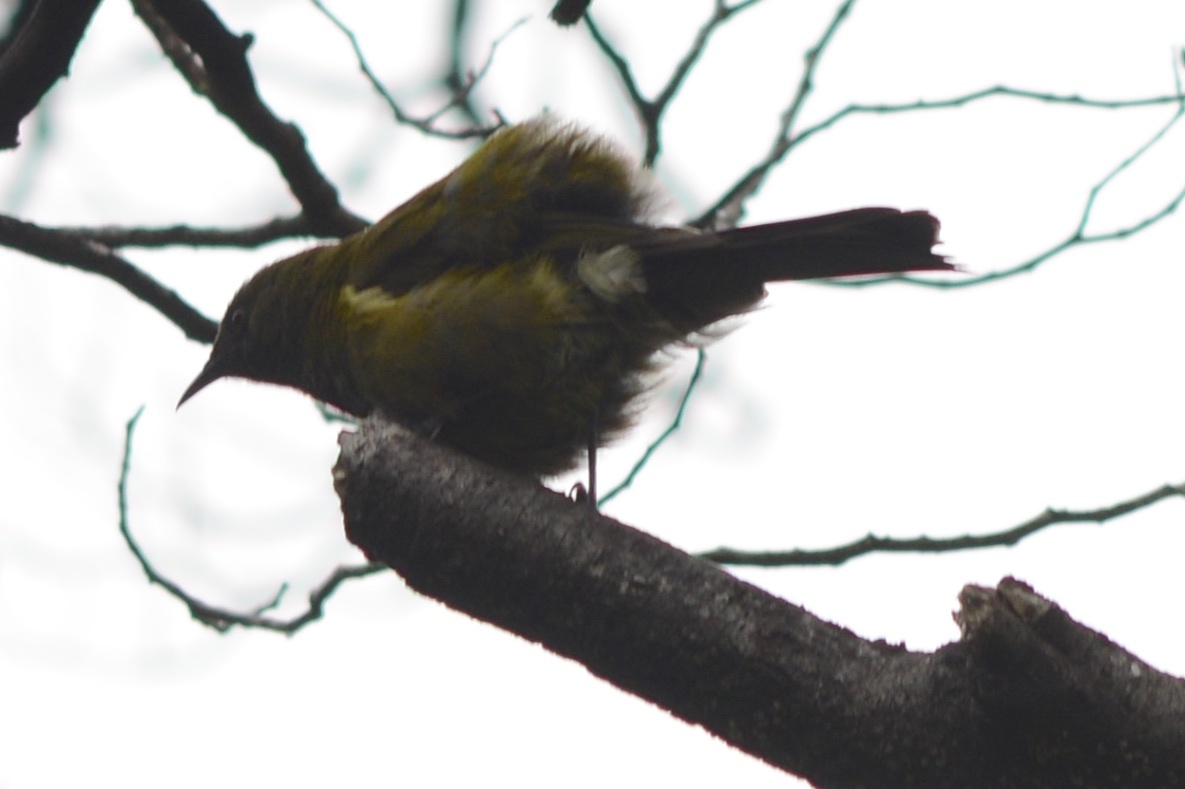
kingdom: Animalia
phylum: Chordata
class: Aves
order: Passeriformes
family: Meliphagidae
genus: Anthornis
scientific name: Anthornis melanura
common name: New zealand bellbird
